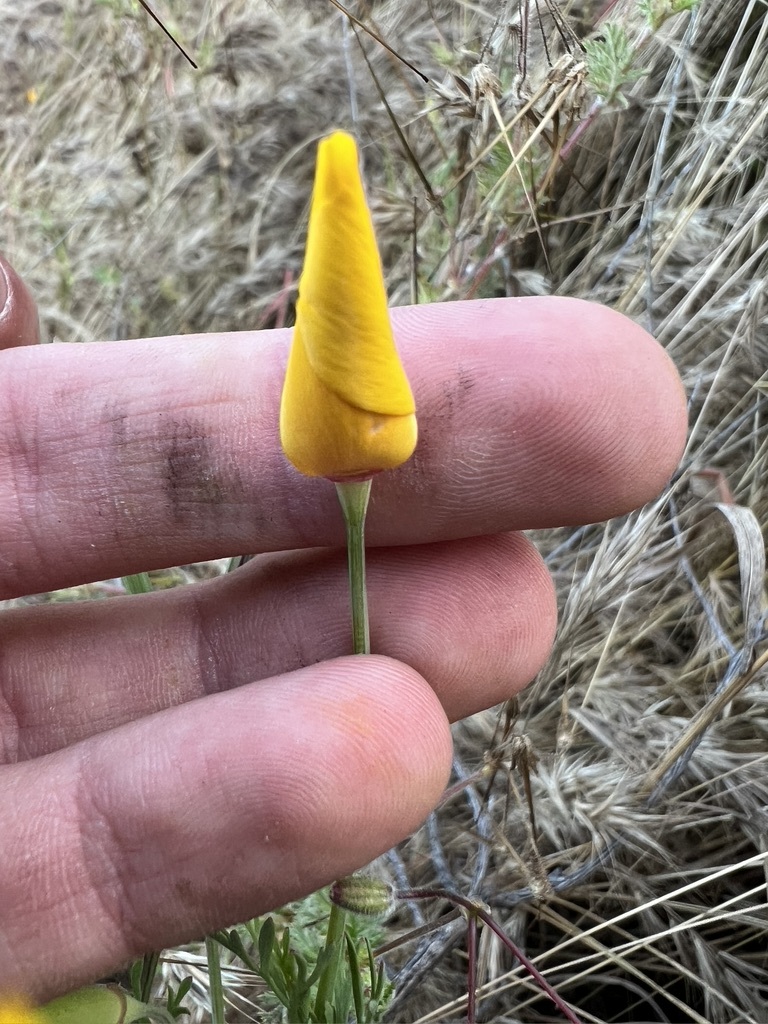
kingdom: Plantae
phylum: Tracheophyta
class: Magnoliopsida
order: Ranunculales
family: Papaveraceae
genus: Eschscholzia
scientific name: Eschscholzia californica
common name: California poppy
